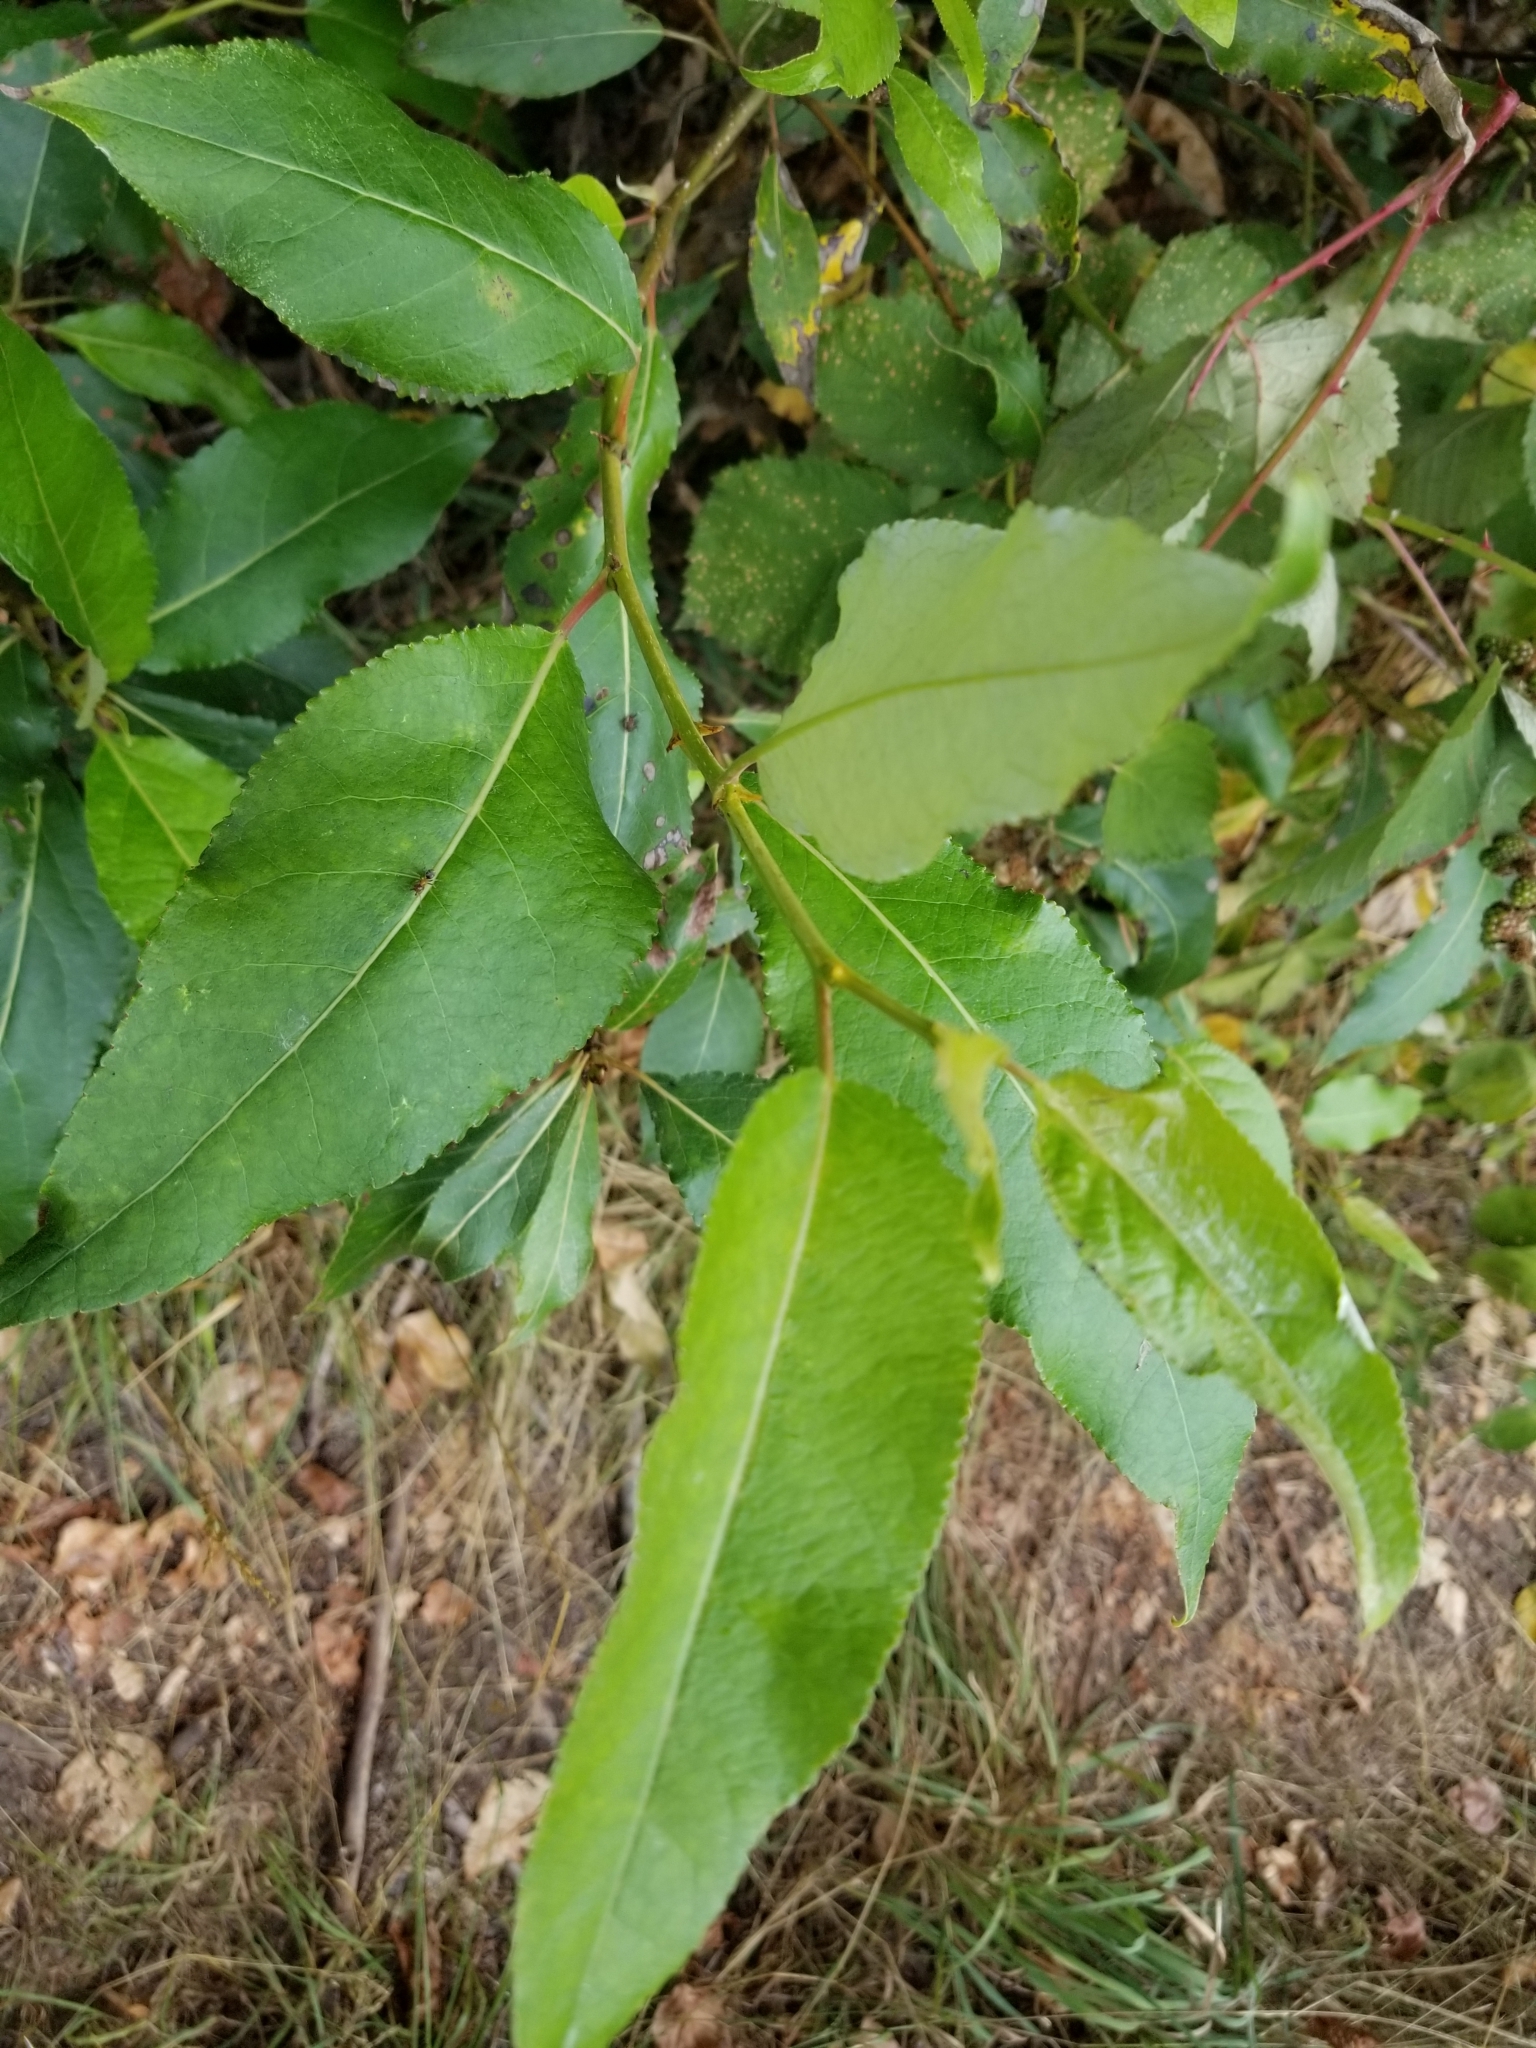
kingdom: Plantae
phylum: Tracheophyta
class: Magnoliopsida
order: Malpighiales
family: Salicaceae
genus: Populus
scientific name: Populus trichocarpa
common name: Black cottonwood
